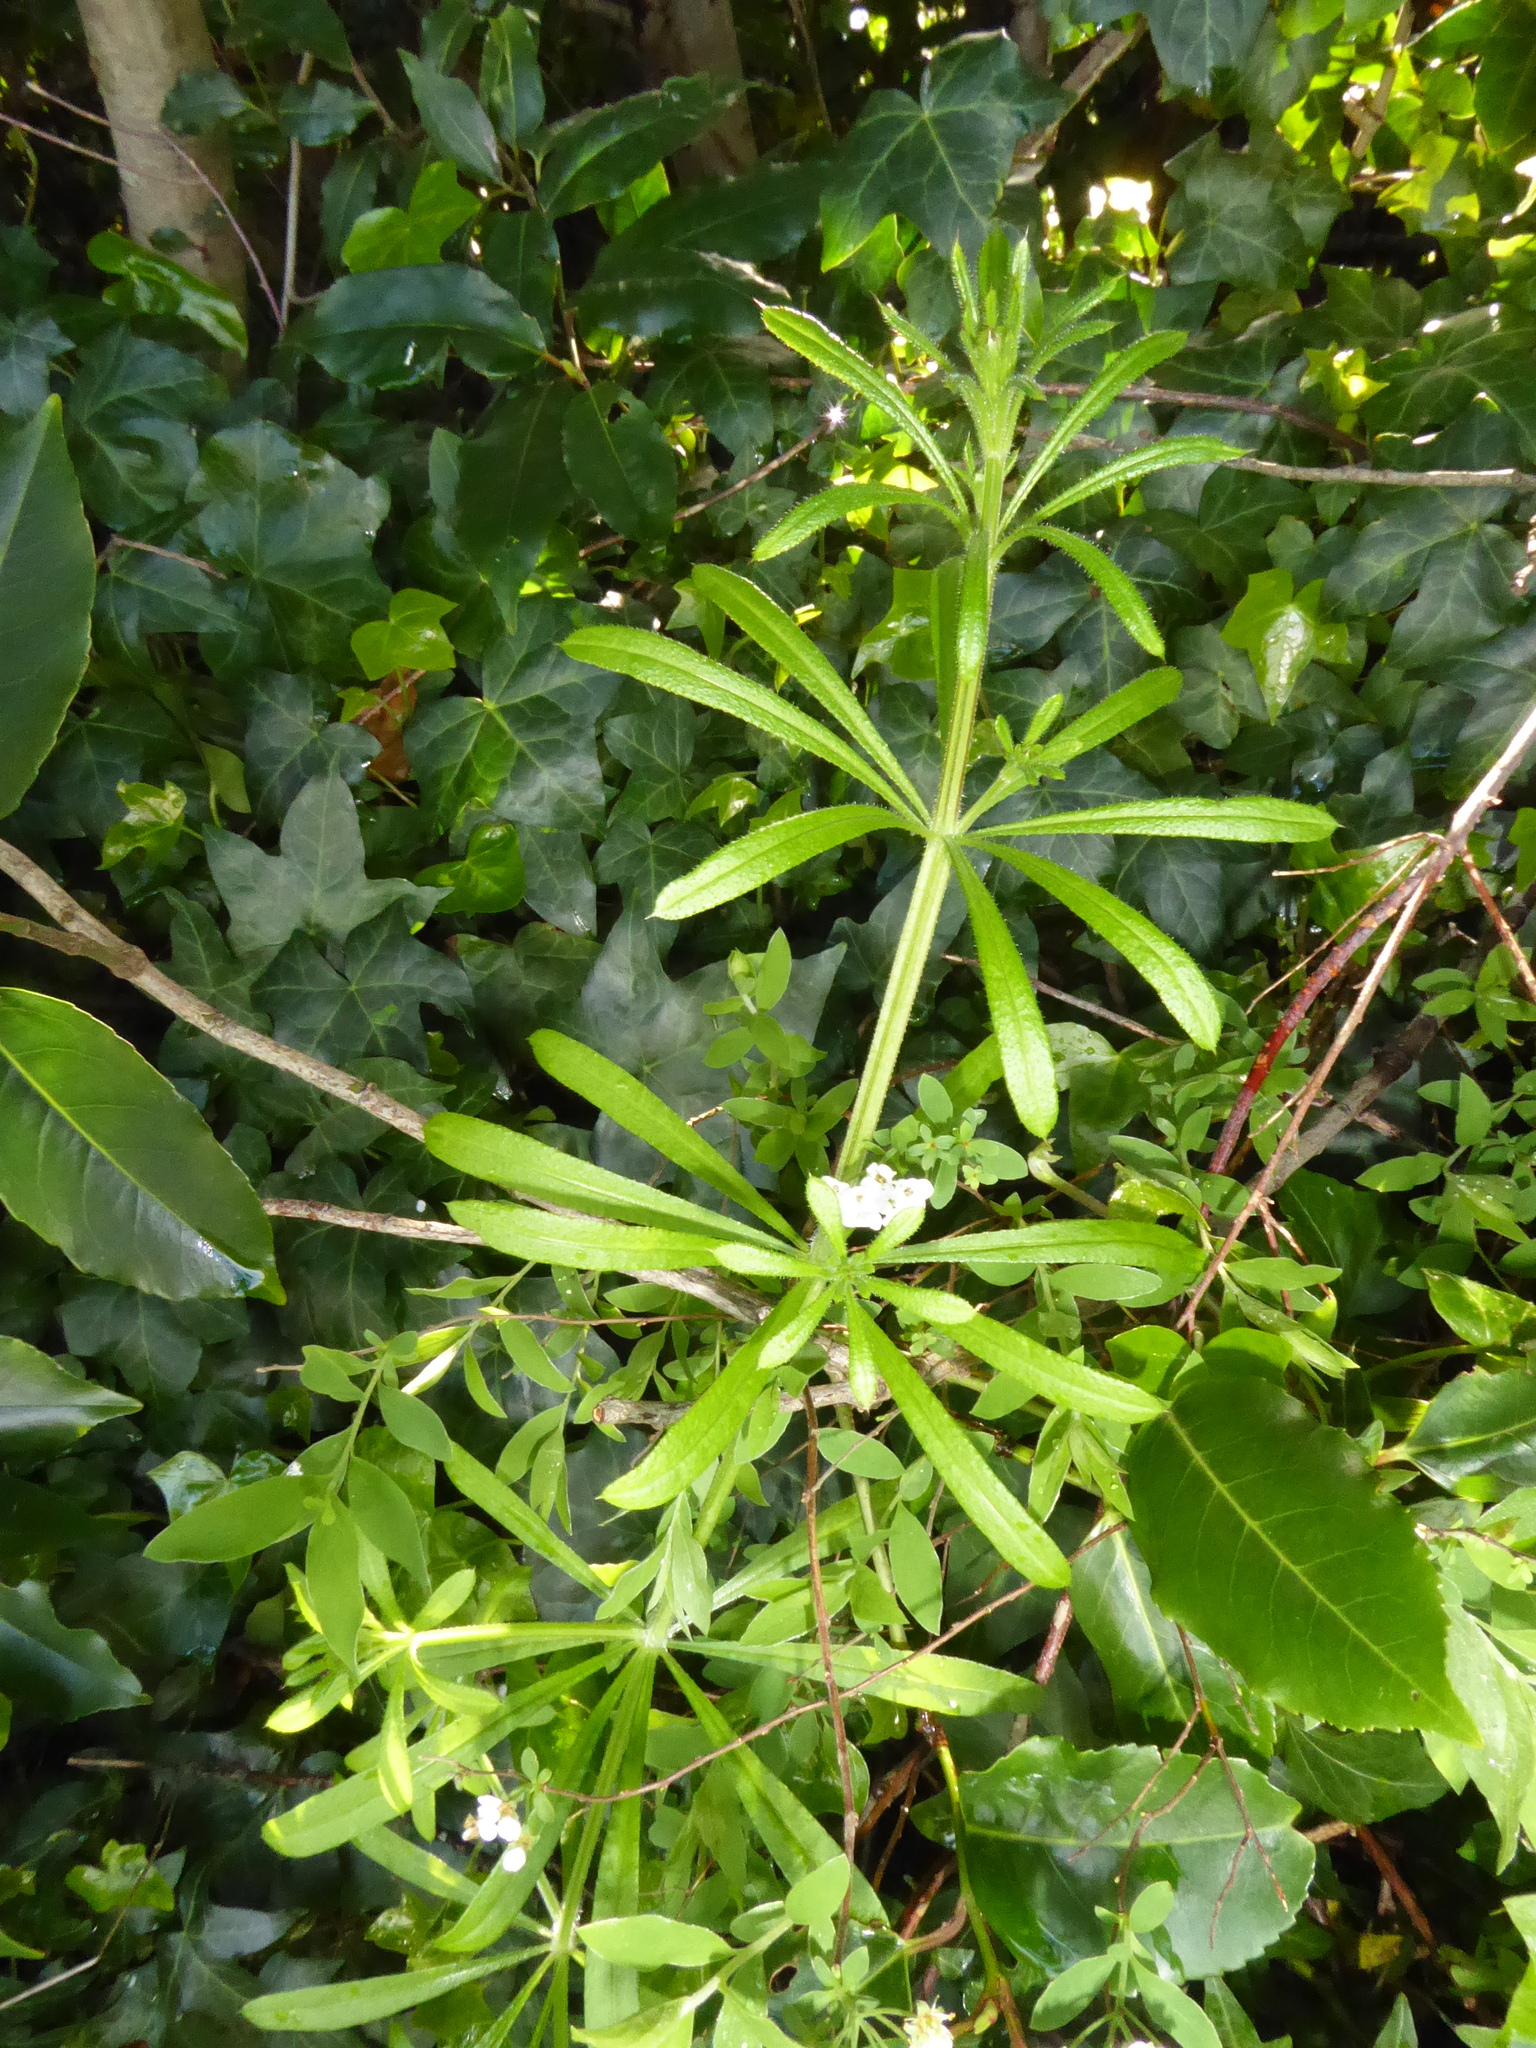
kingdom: Plantae
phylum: Tracheophyta
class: Magnoliopsida
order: Gentianales
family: Rubiaceae
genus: Galium
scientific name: Galium aparine
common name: Cleavers
